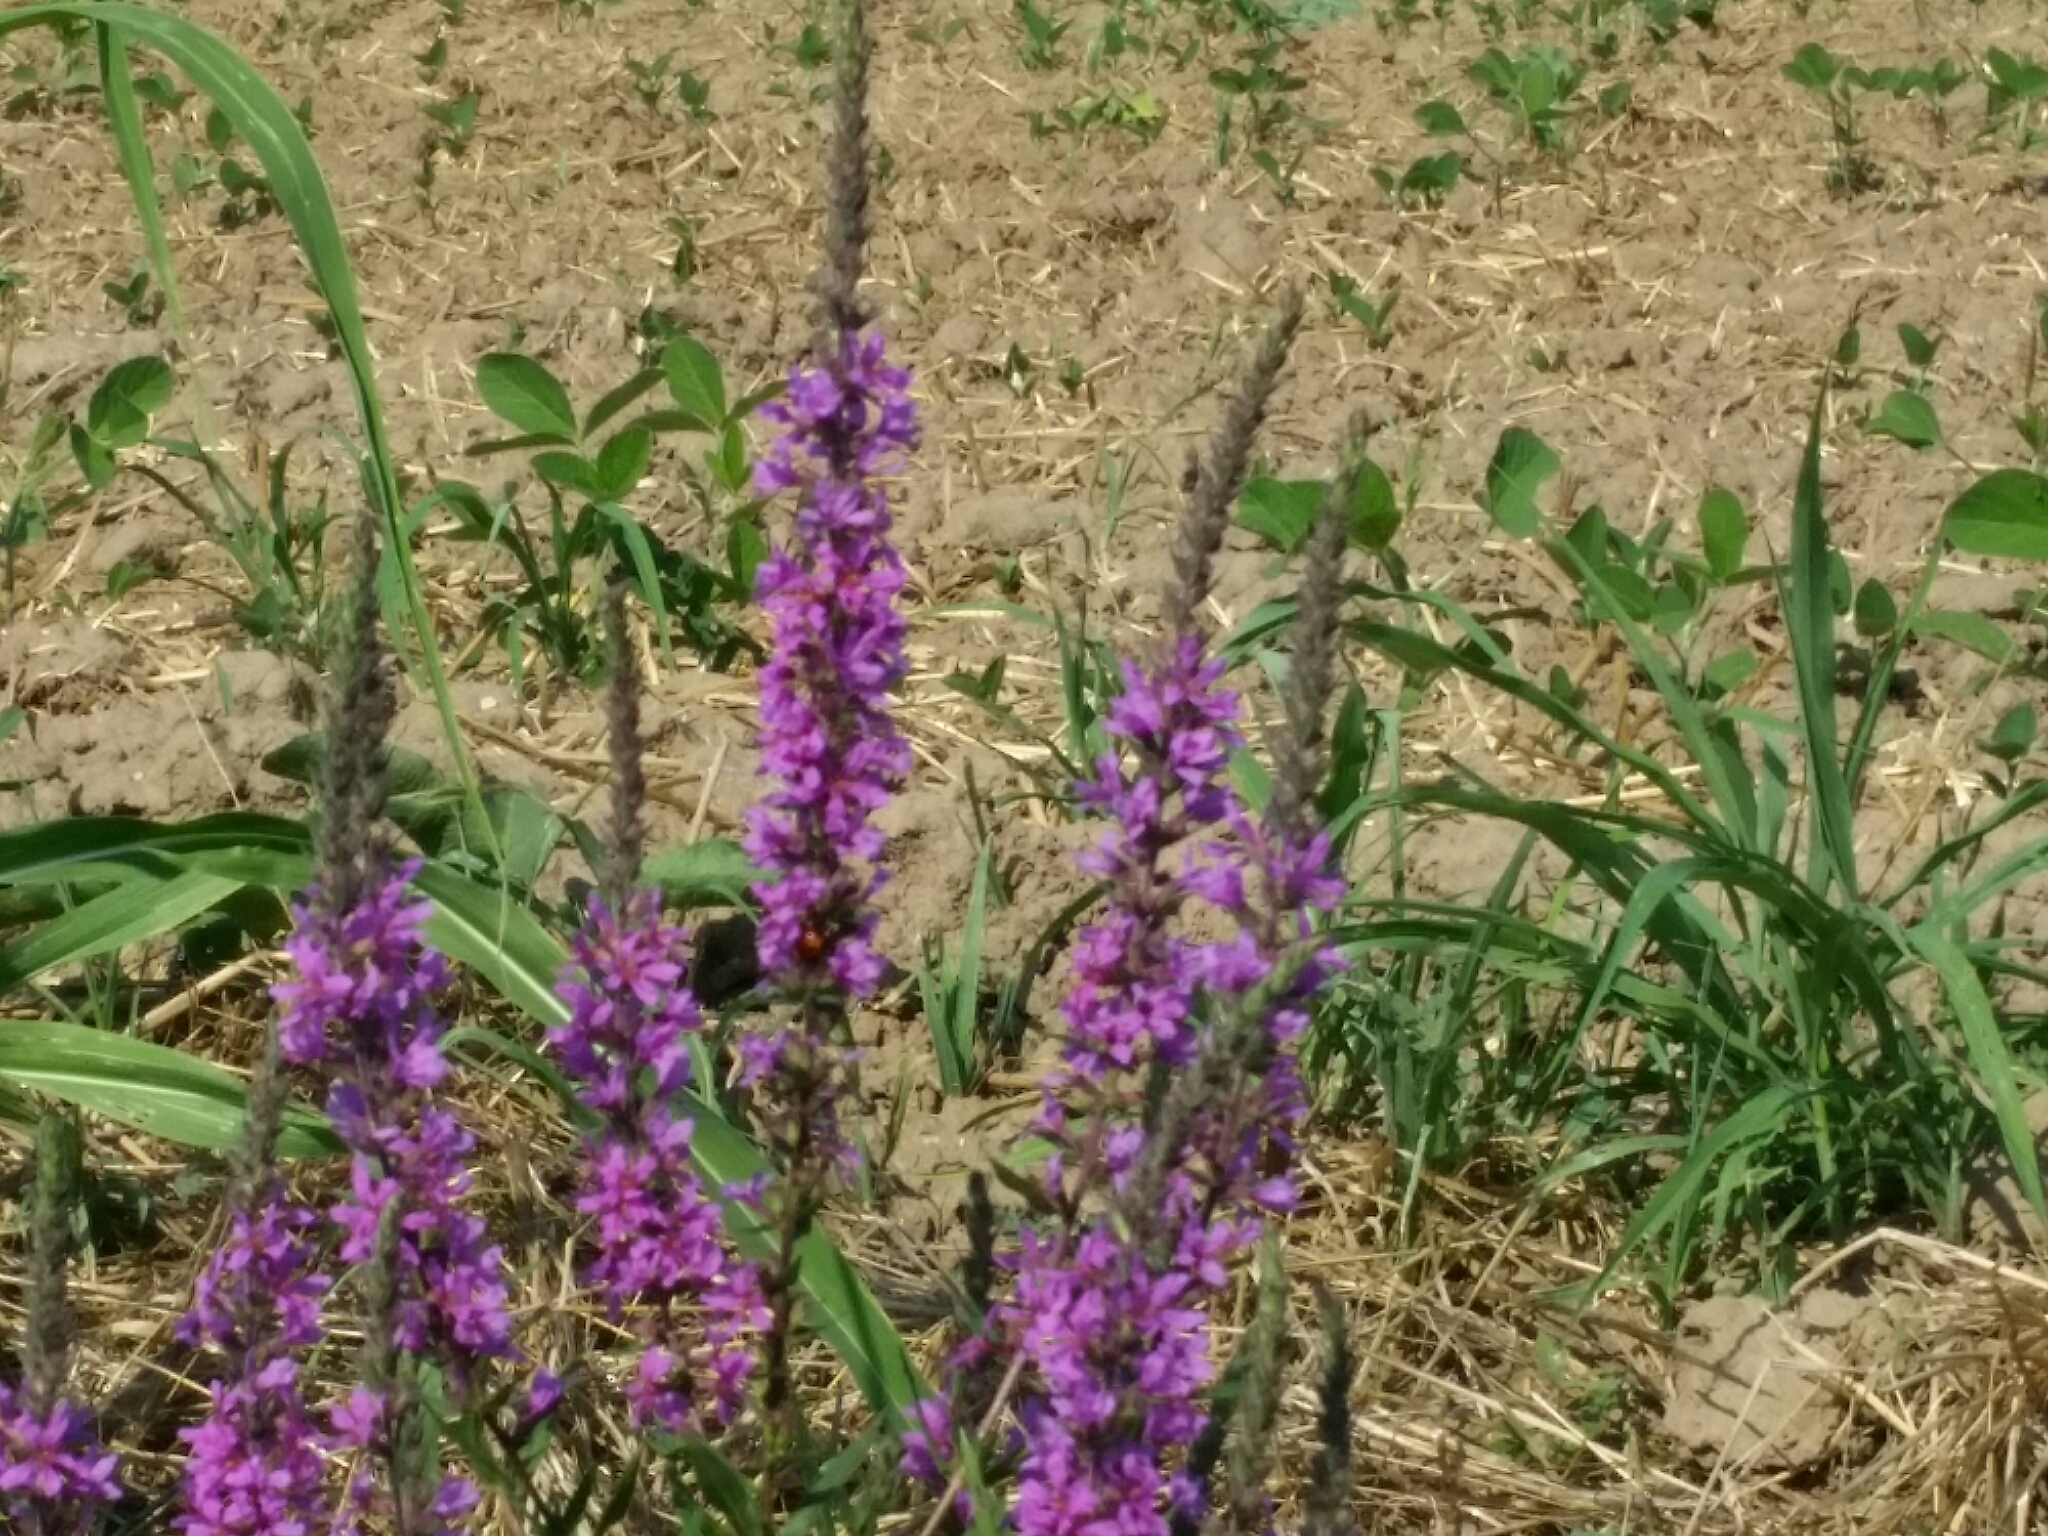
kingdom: Plantae
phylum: Tracheophyta
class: Magnoliopsida
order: Myrtales
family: Lythraceae
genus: Lythrum
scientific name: Lythrum salicaria
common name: Purple loosestrife
